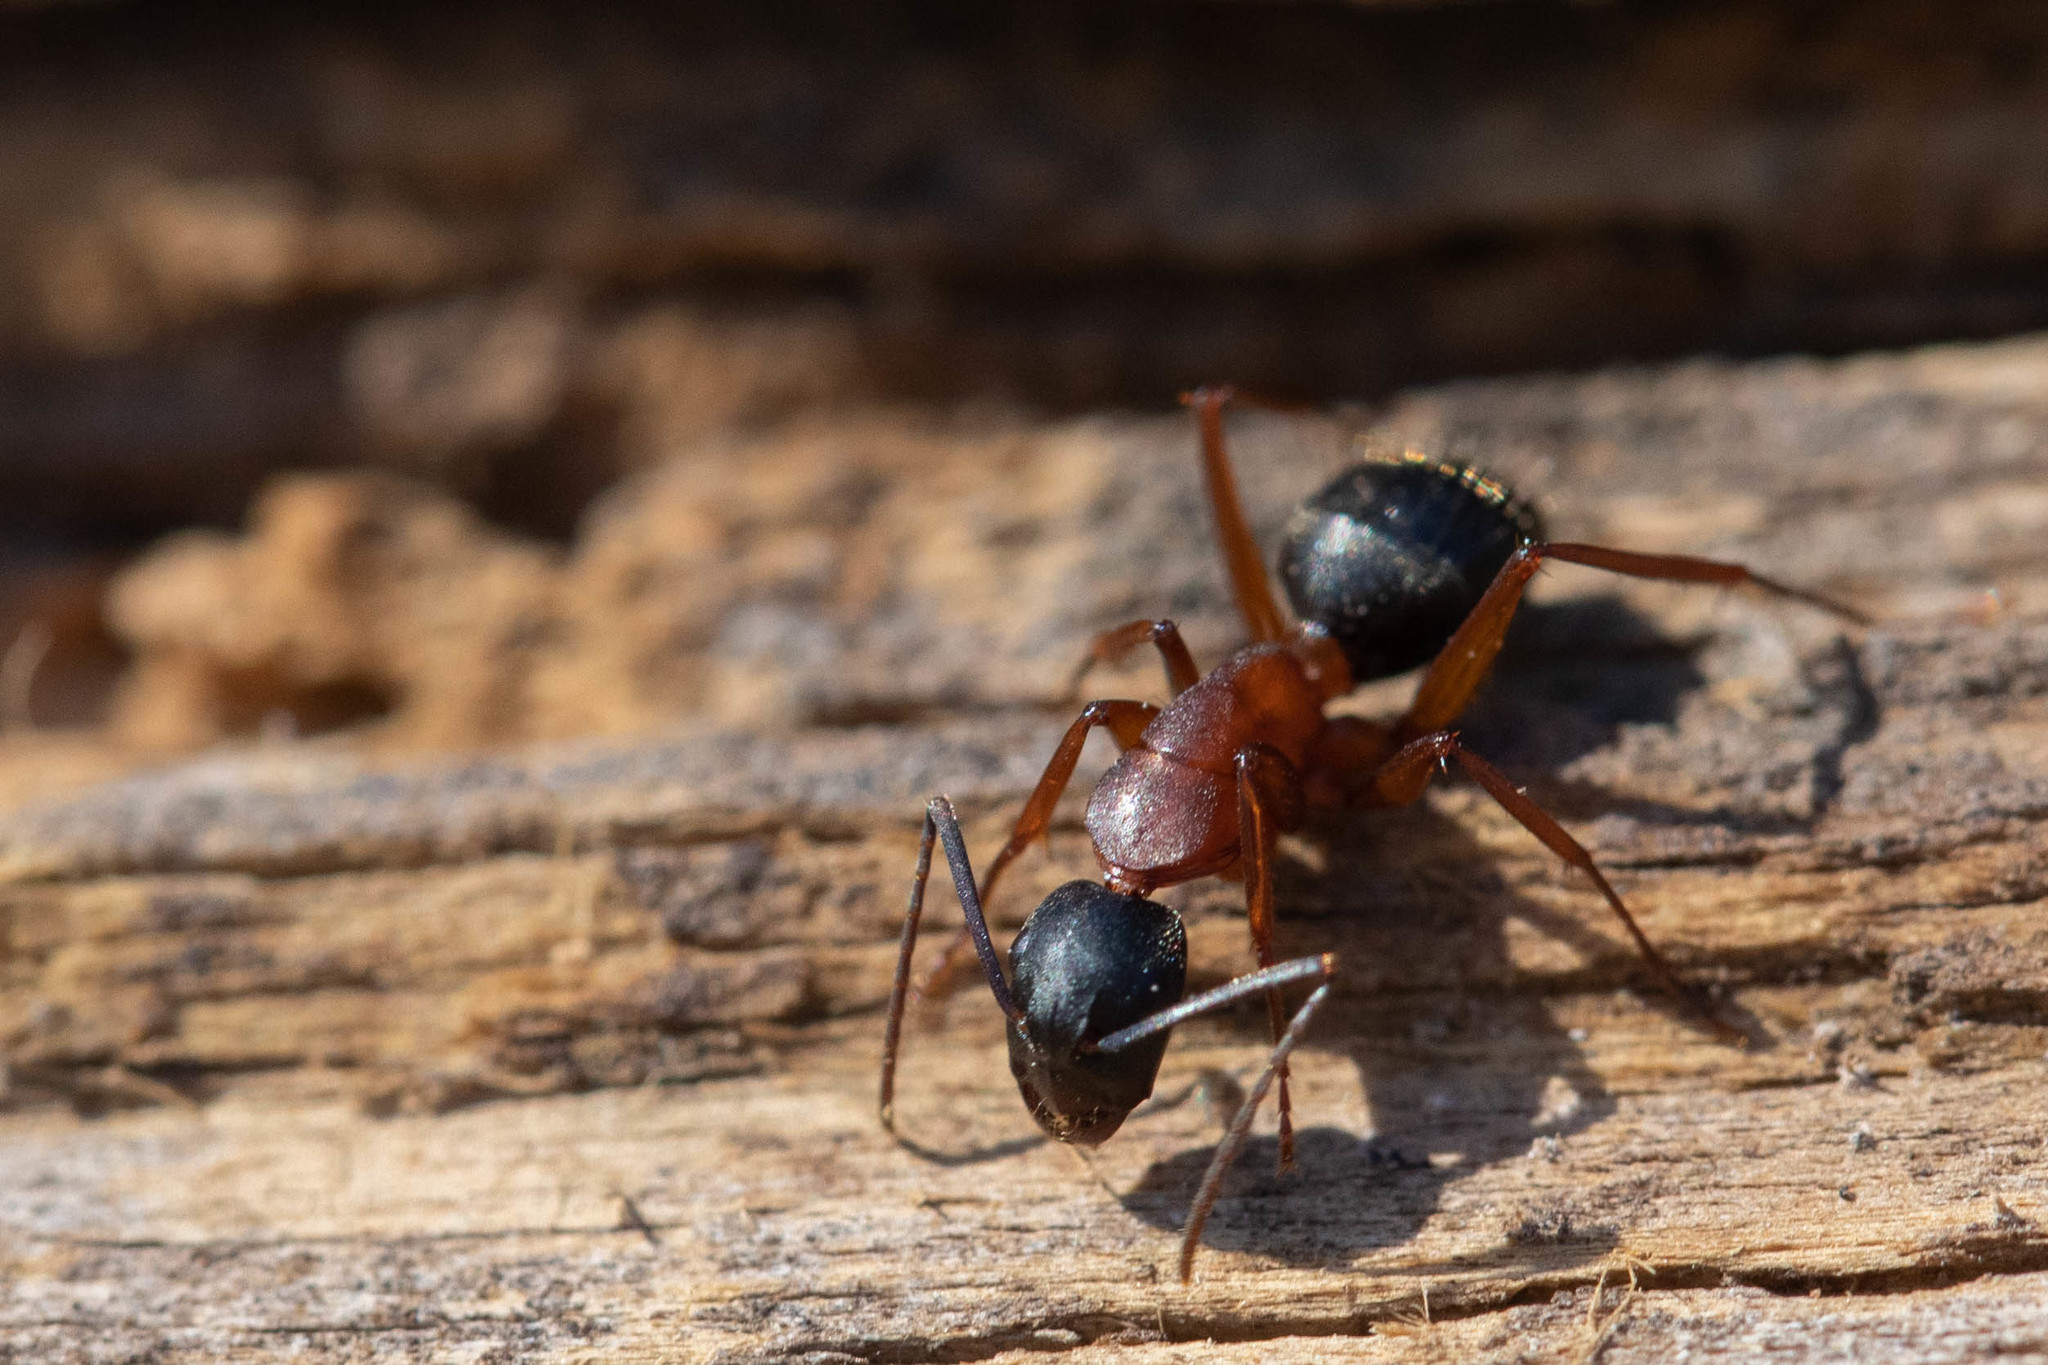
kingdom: Animalia
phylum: Arthropoda
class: Insecta
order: Hymenoptera
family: Formicidae
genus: Camponotus
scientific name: Camponotus vicinus
